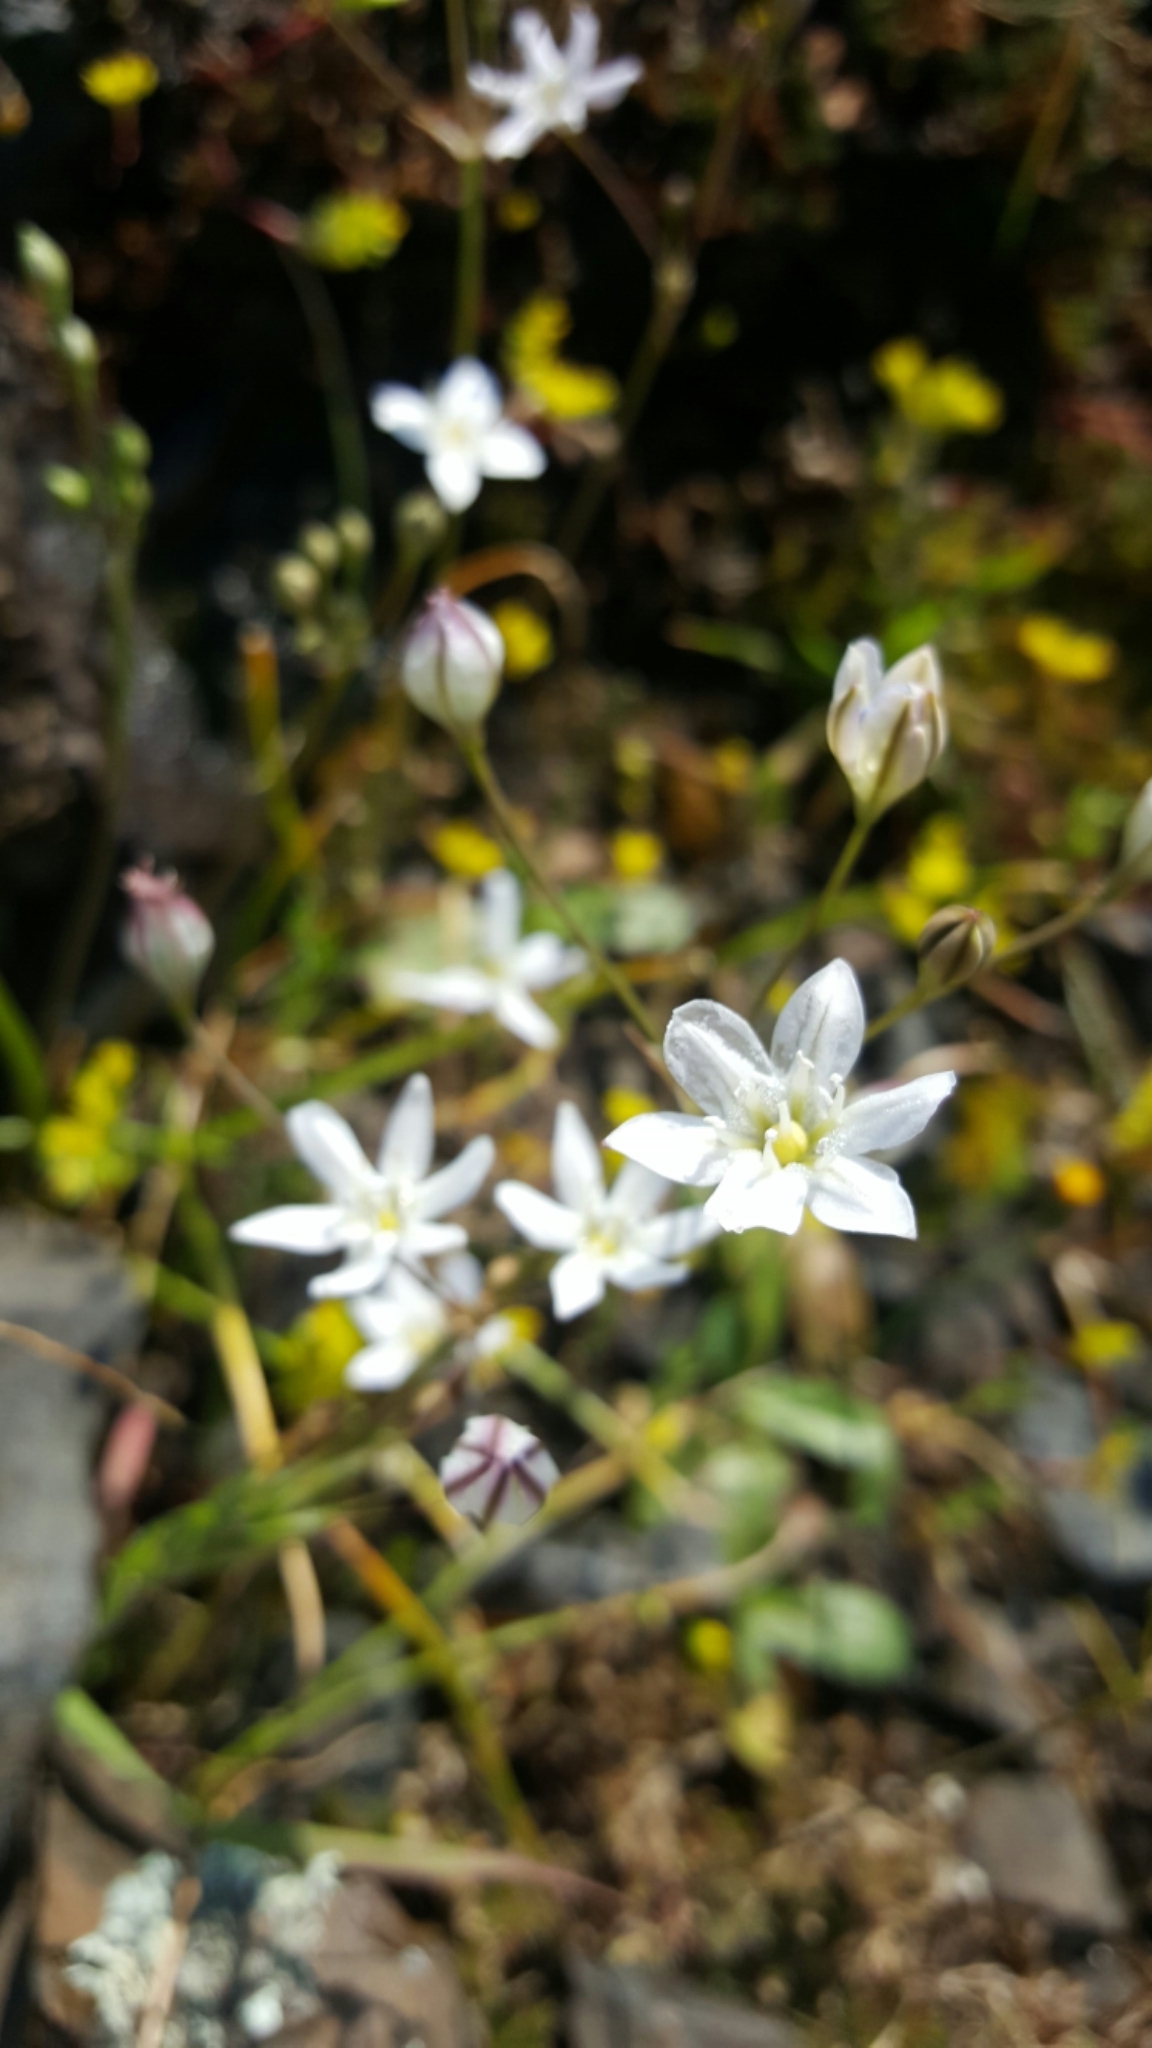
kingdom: Plantae
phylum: Tracheophyta
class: Liliopsida
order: Asparagales
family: Asparagaceae
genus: Triteleia
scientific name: Triteleia lilacina
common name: Lilac-flower wild hyacinth
